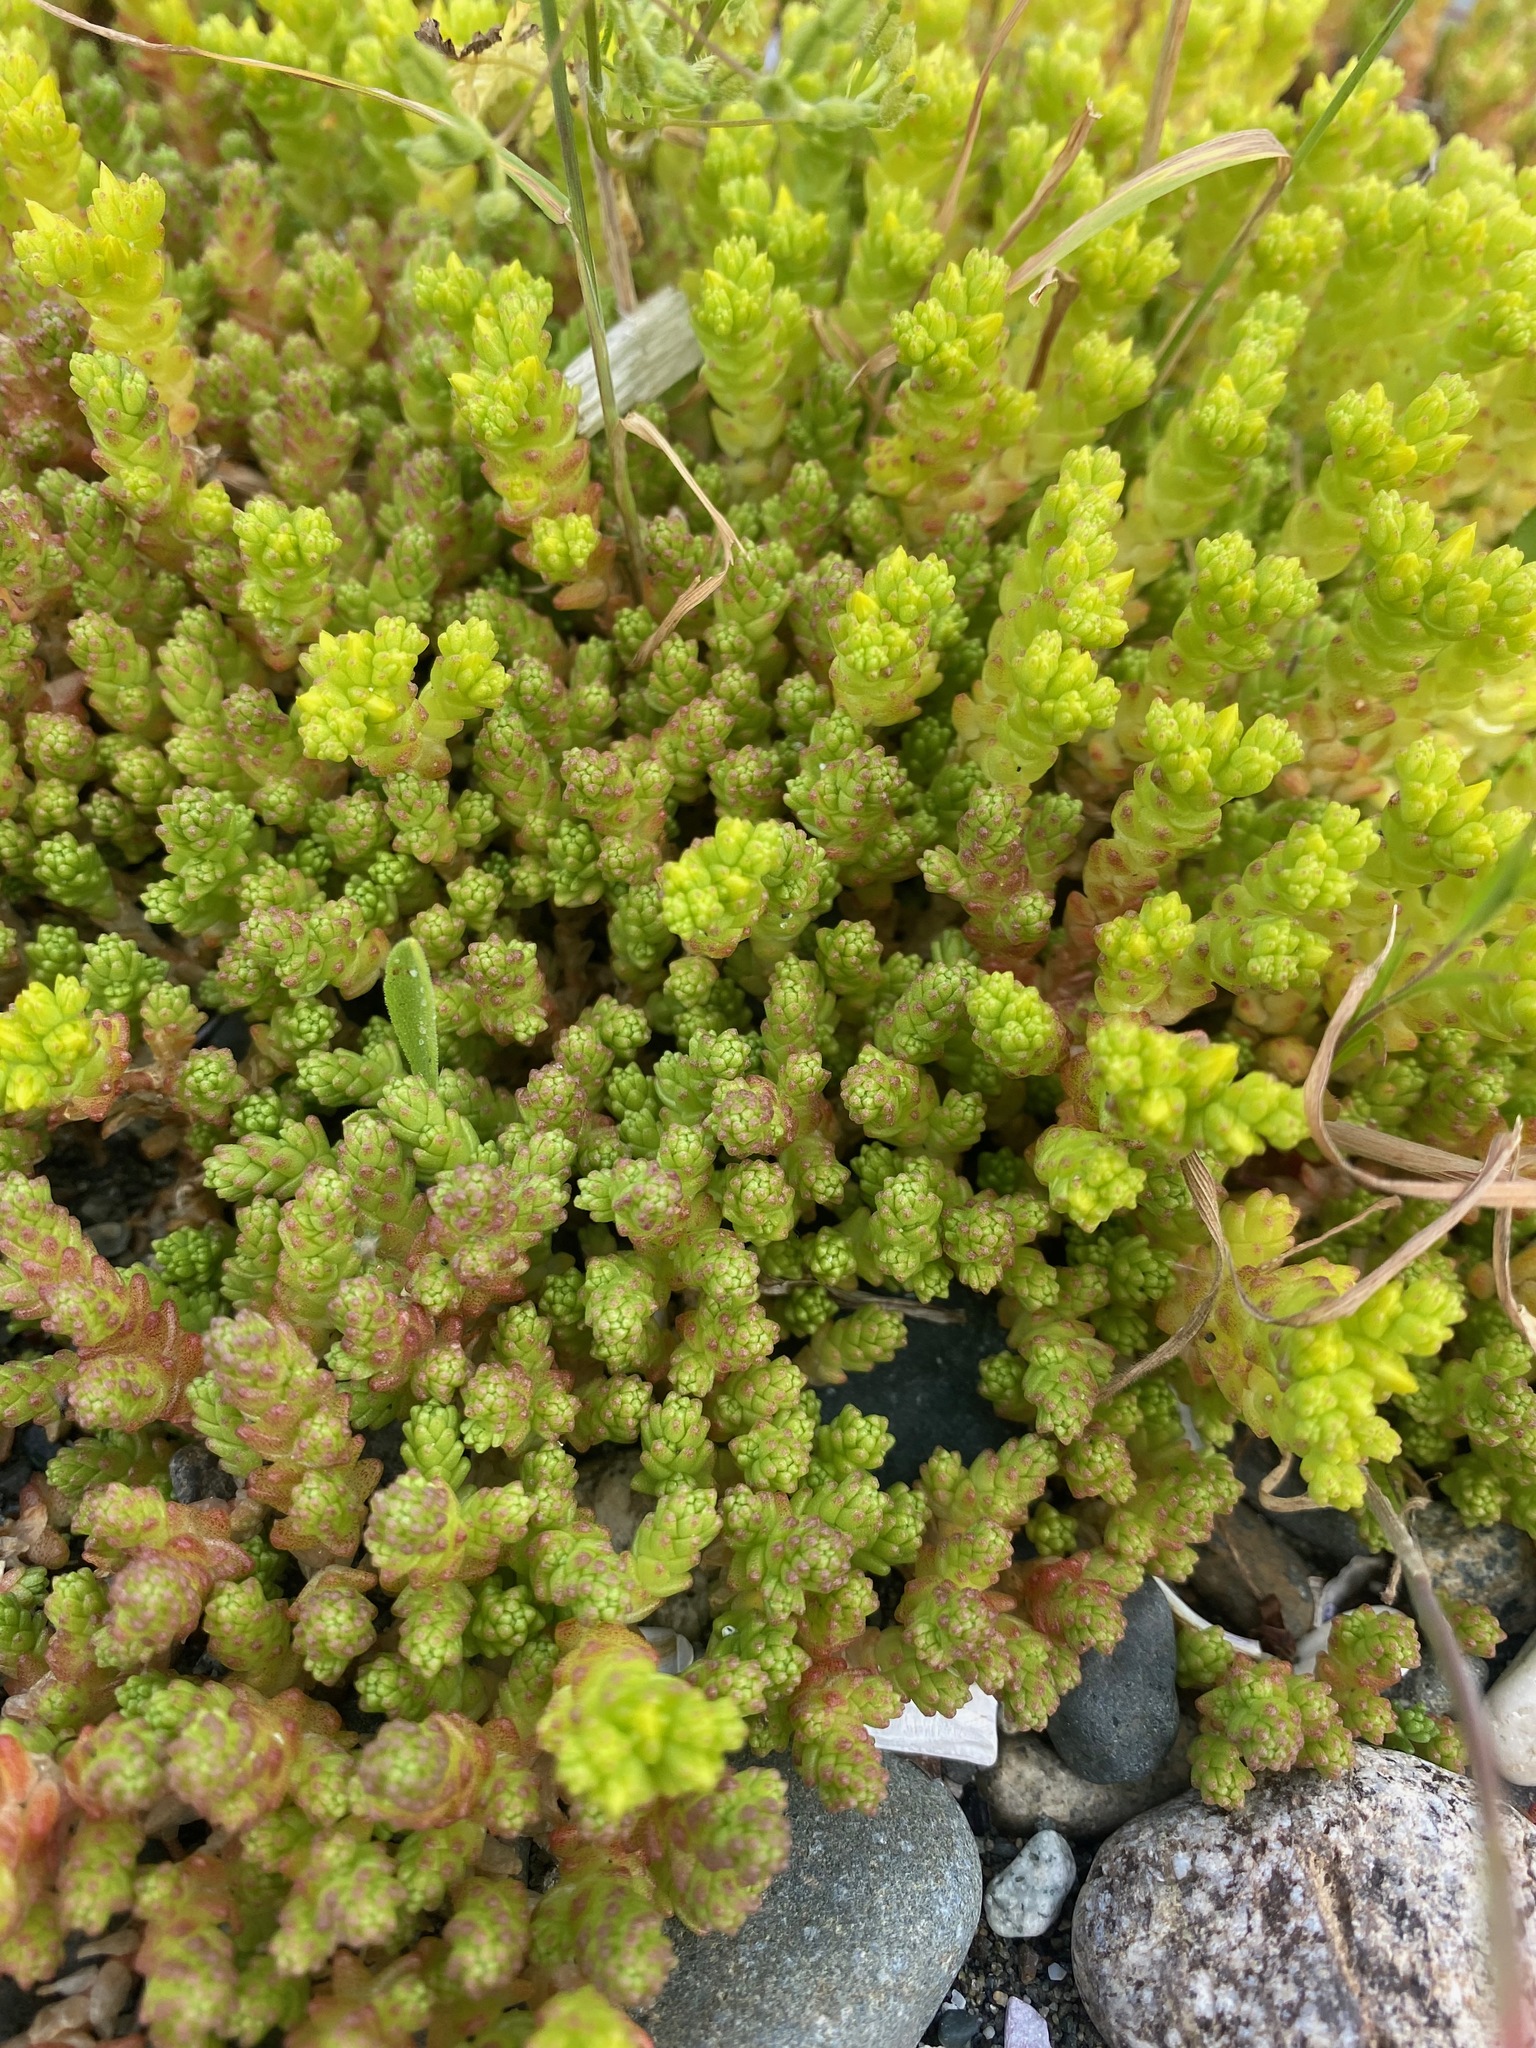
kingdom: Plantae
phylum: Tracheophyta
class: Magnoliopsida
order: Saxifragales
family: Crassulaceae
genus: Sedum
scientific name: Sedum acre
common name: Biting stonecrop
